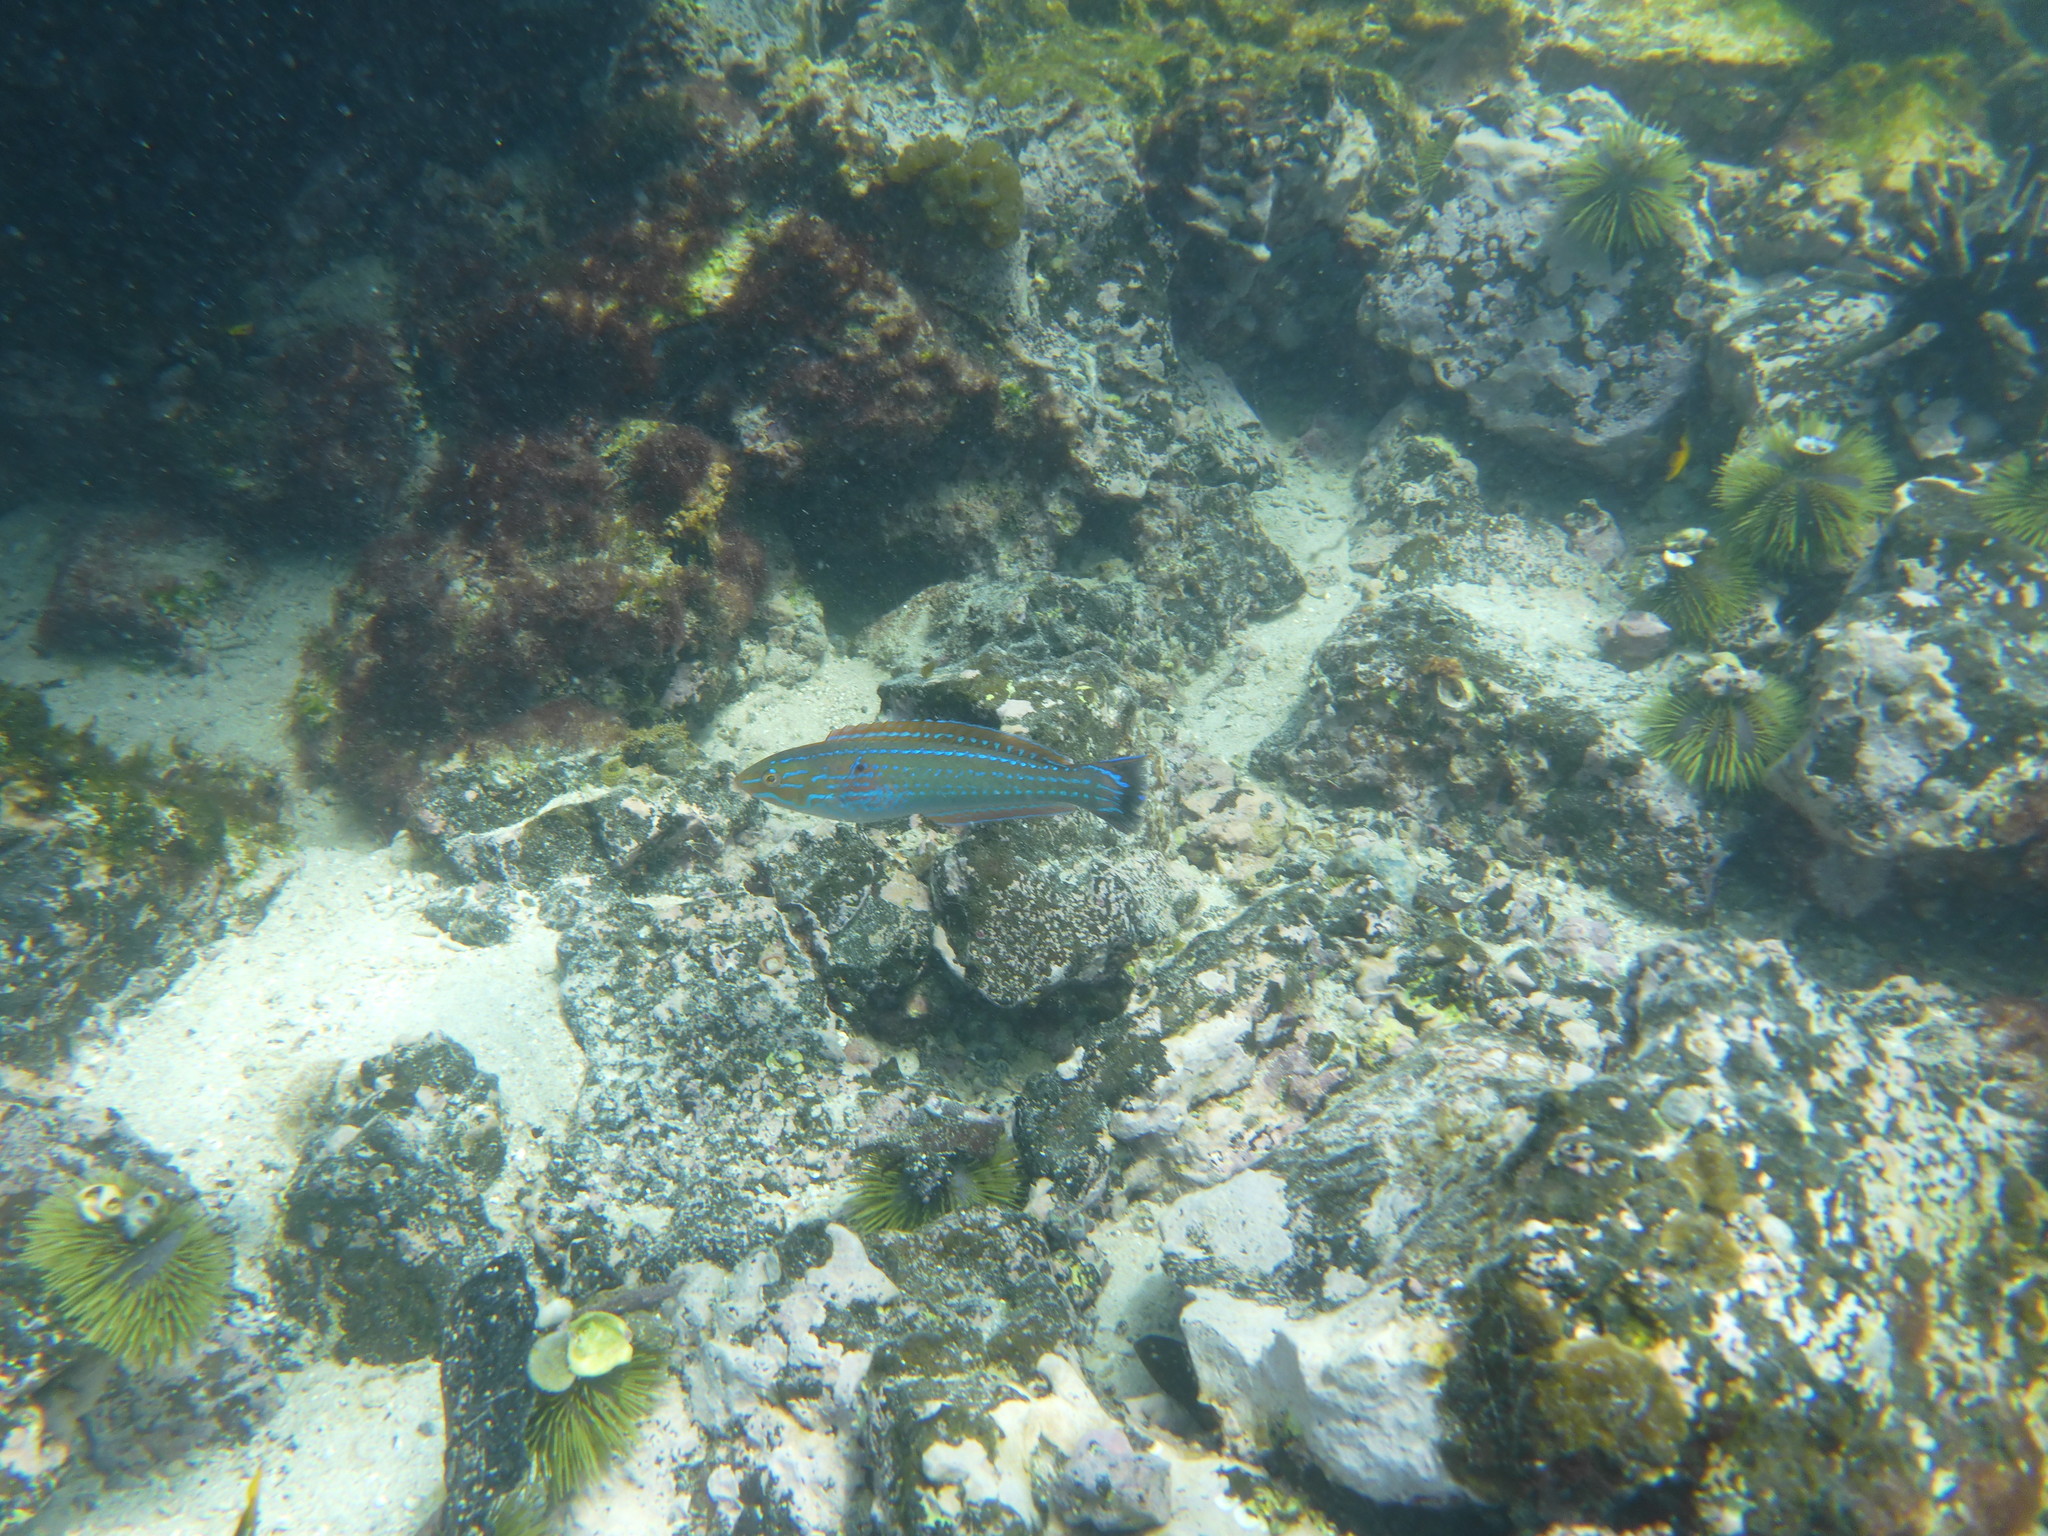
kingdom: Animalia
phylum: Chordata
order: Perciformes
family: Labridae
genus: Halichoeres
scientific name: Halichoeres dispilus
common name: Chameleon wrasse
